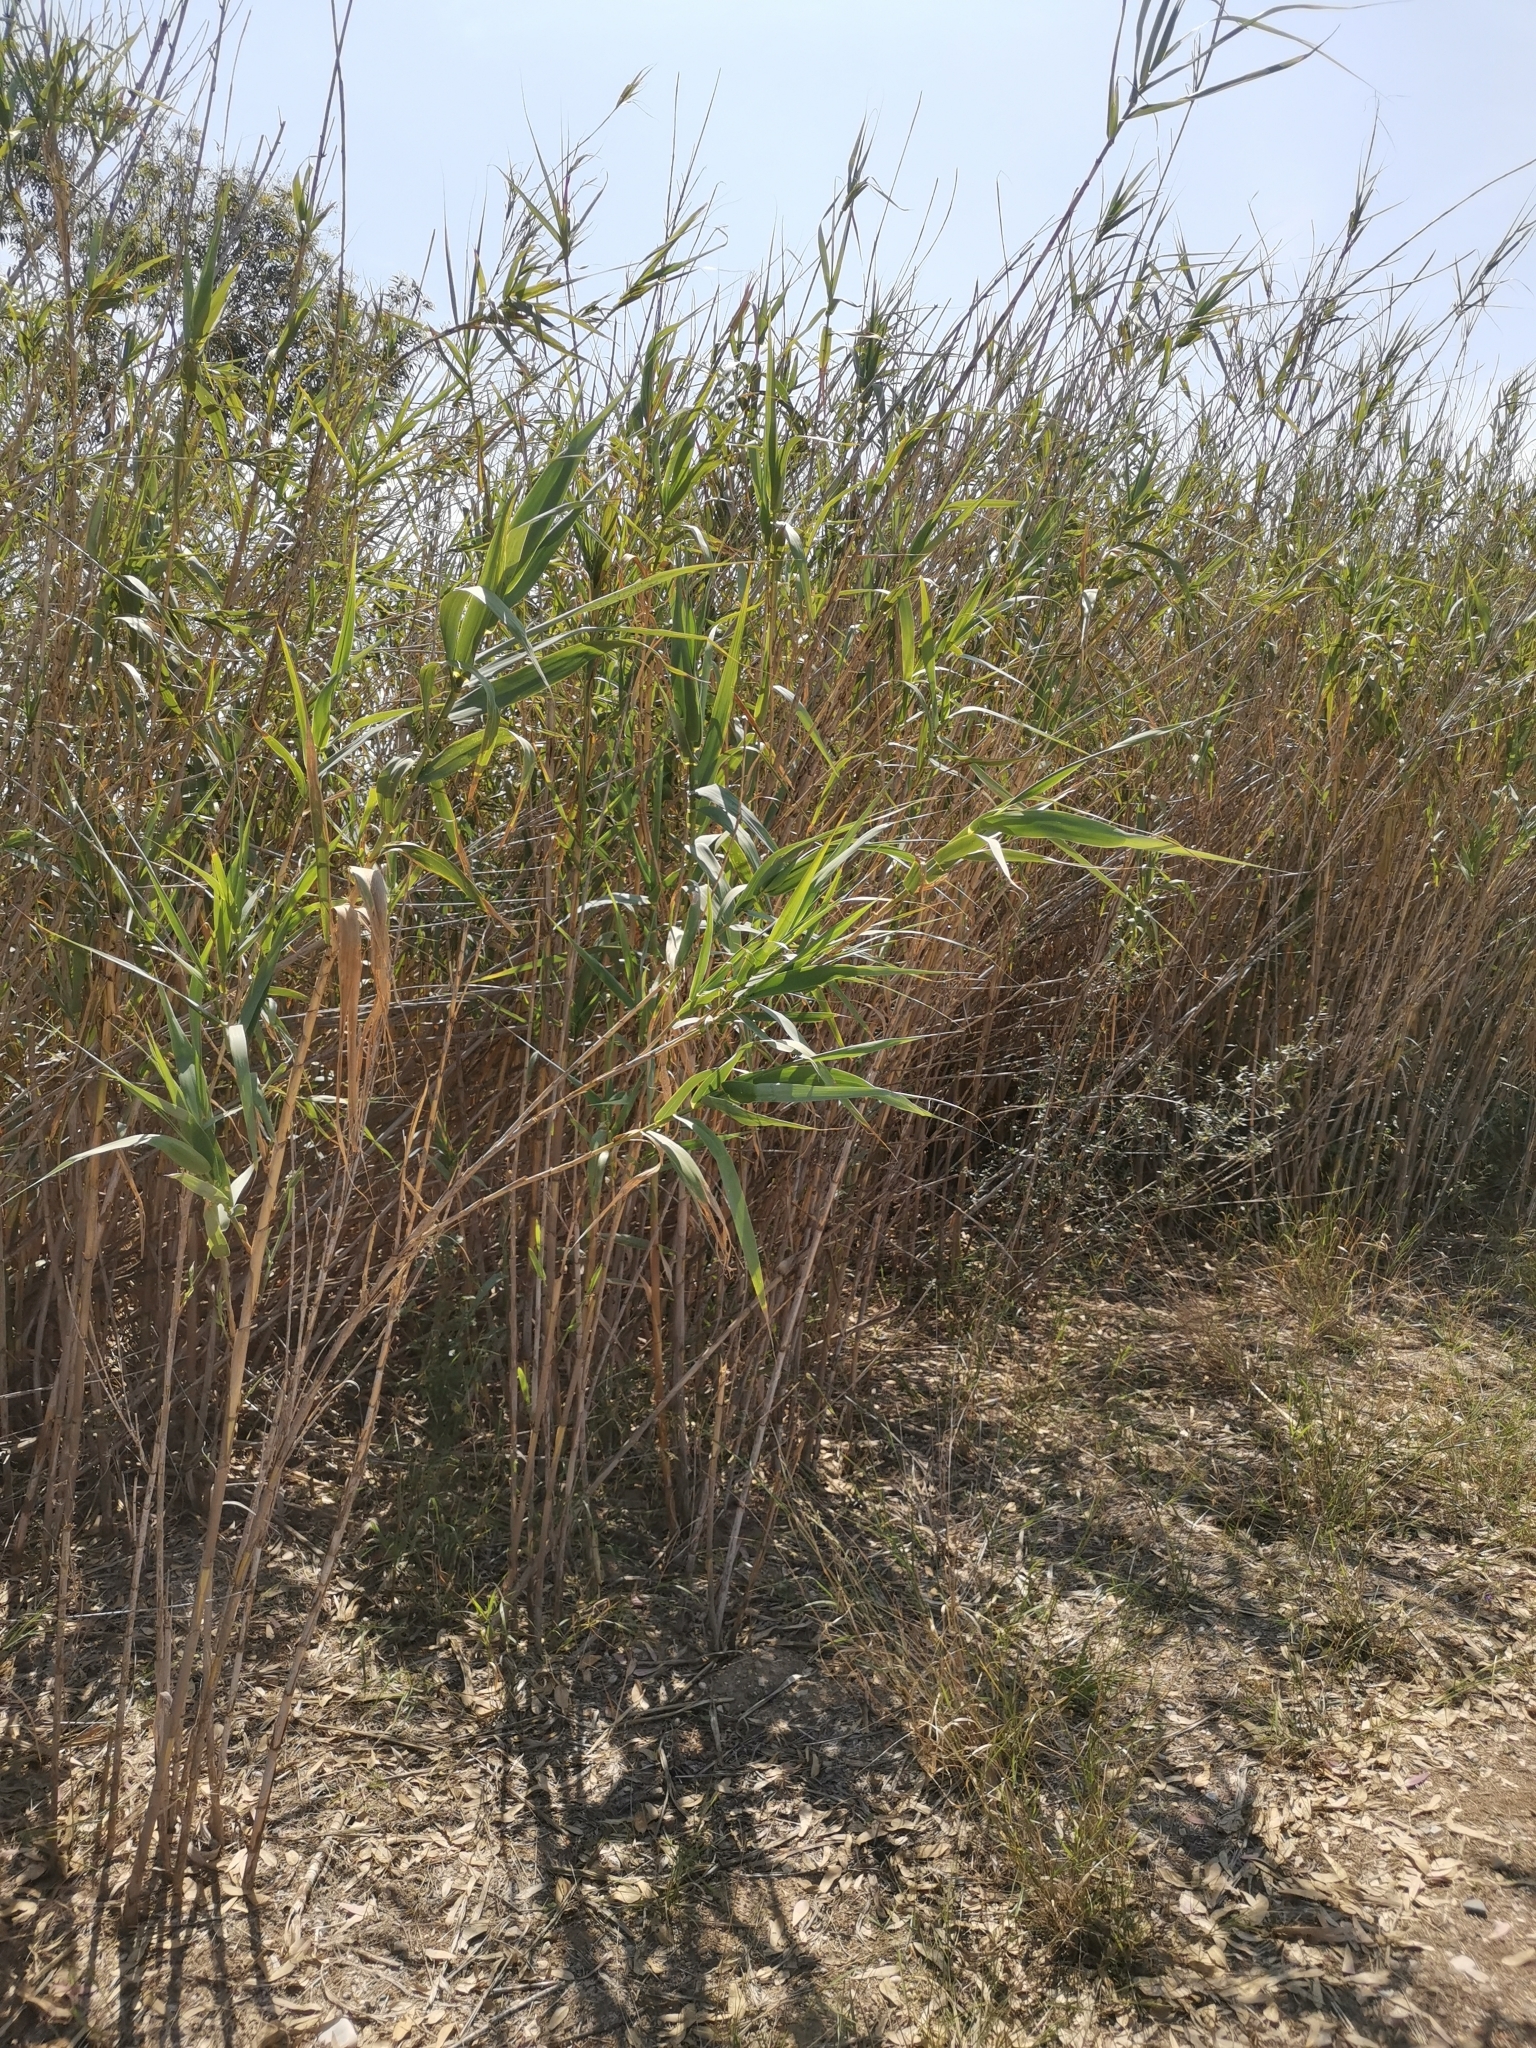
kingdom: Plantae
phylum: Tracheophyta
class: Liliopsida
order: Poales
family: Poaceae
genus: Arundo
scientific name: Arundo donax
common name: Giant reed
